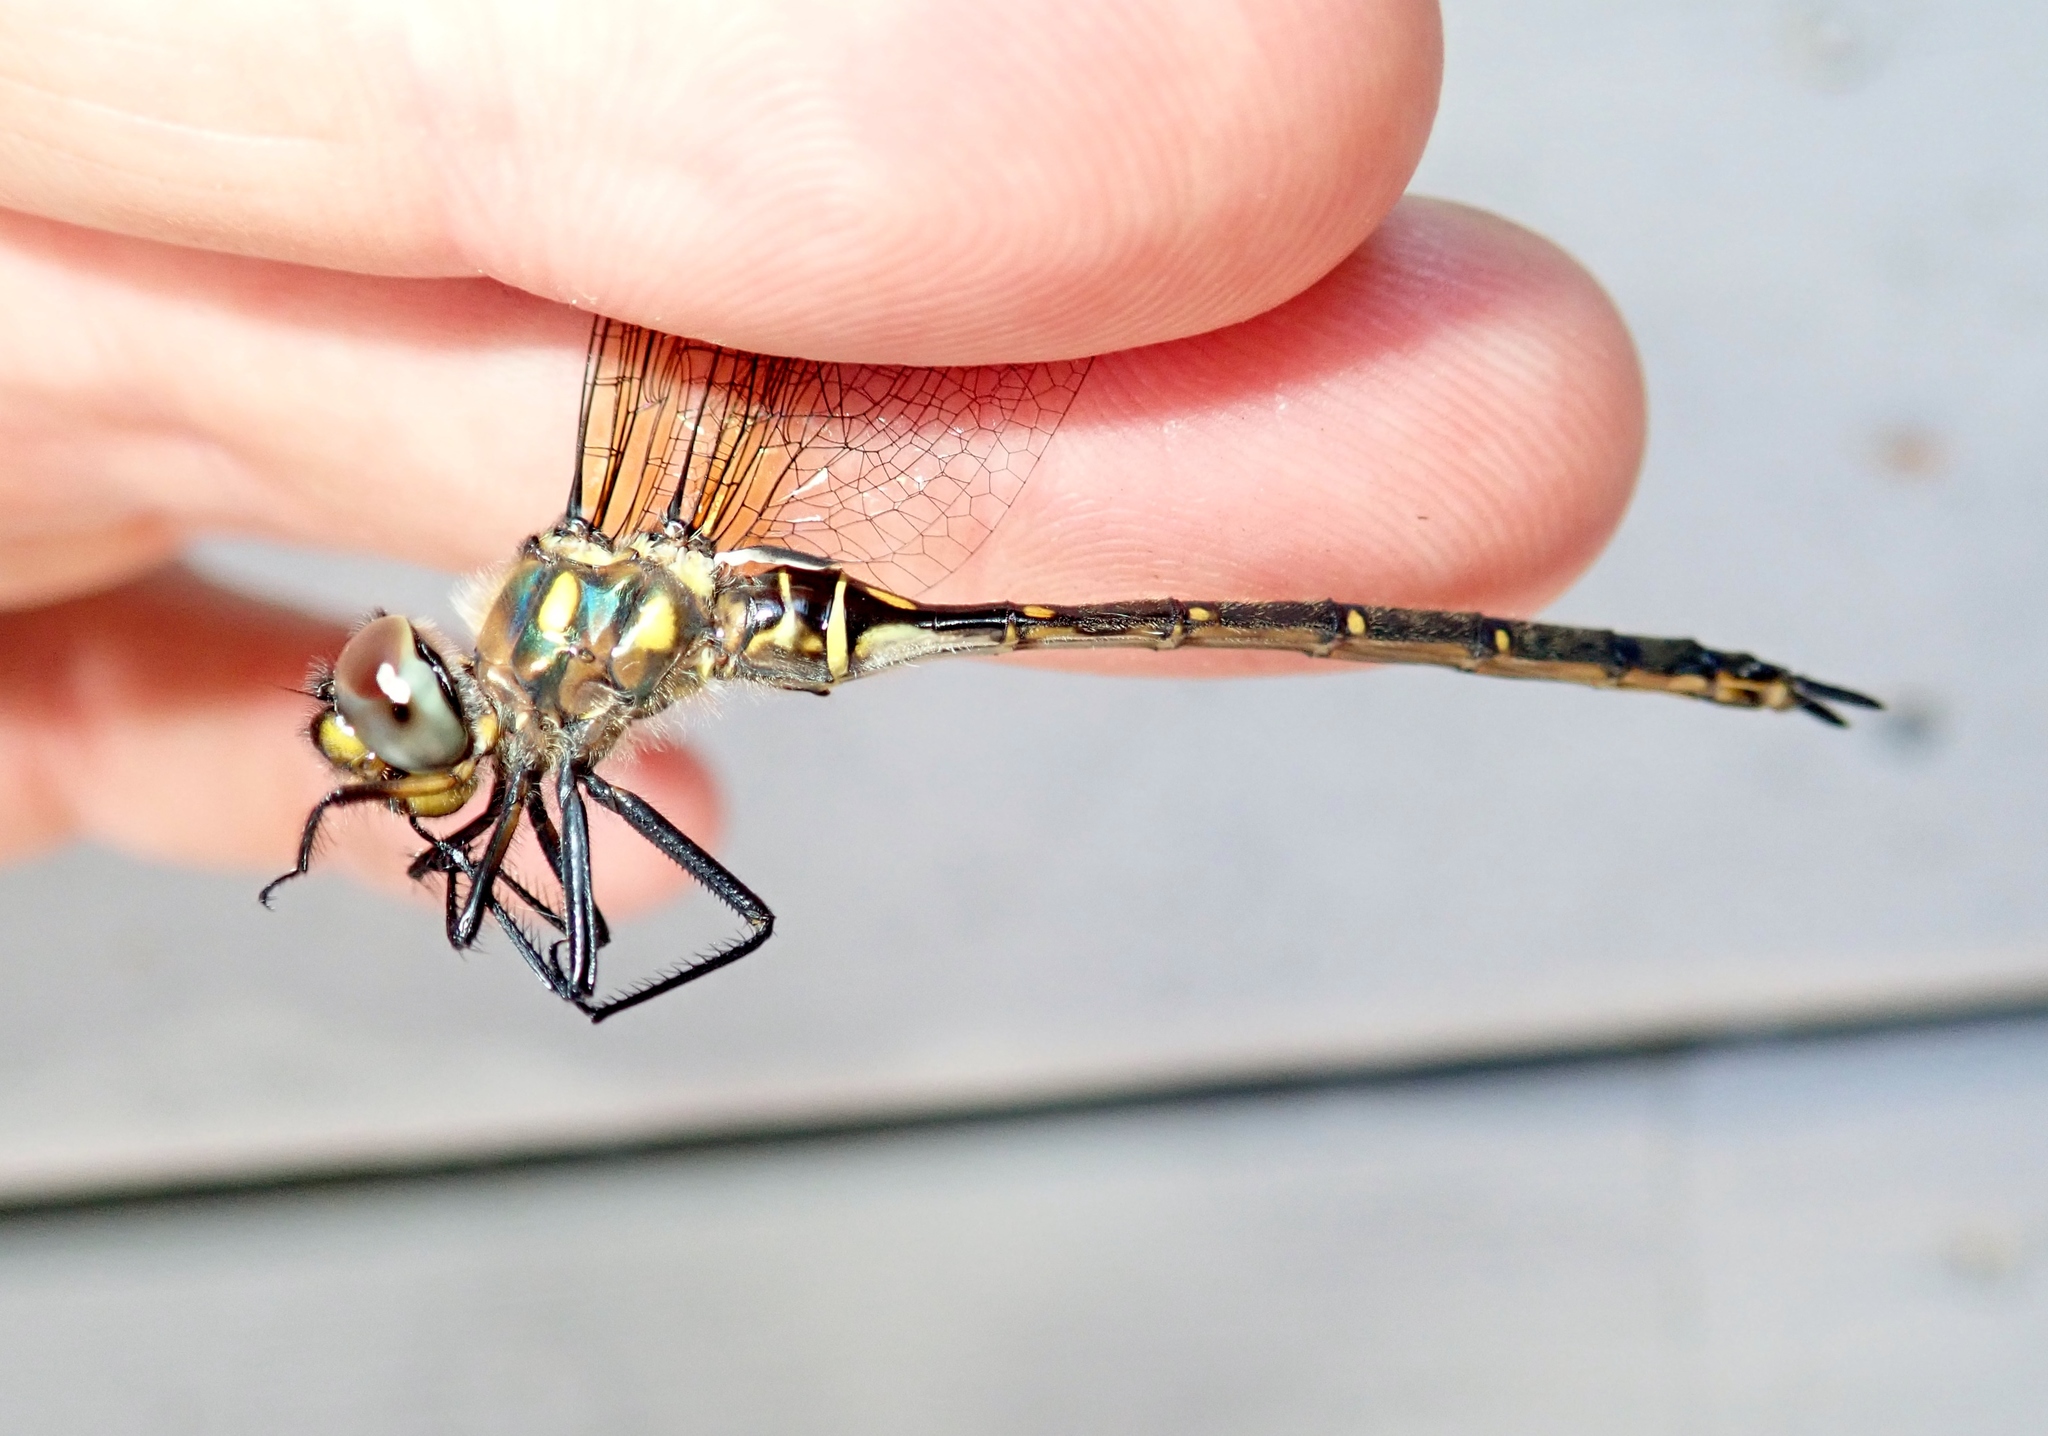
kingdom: Animalia
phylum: Arthropoda
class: Insecta
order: Odonata
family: Corduliidae
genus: Somatochlora
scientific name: Somatochlora forcipata
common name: Forcipate emerald
